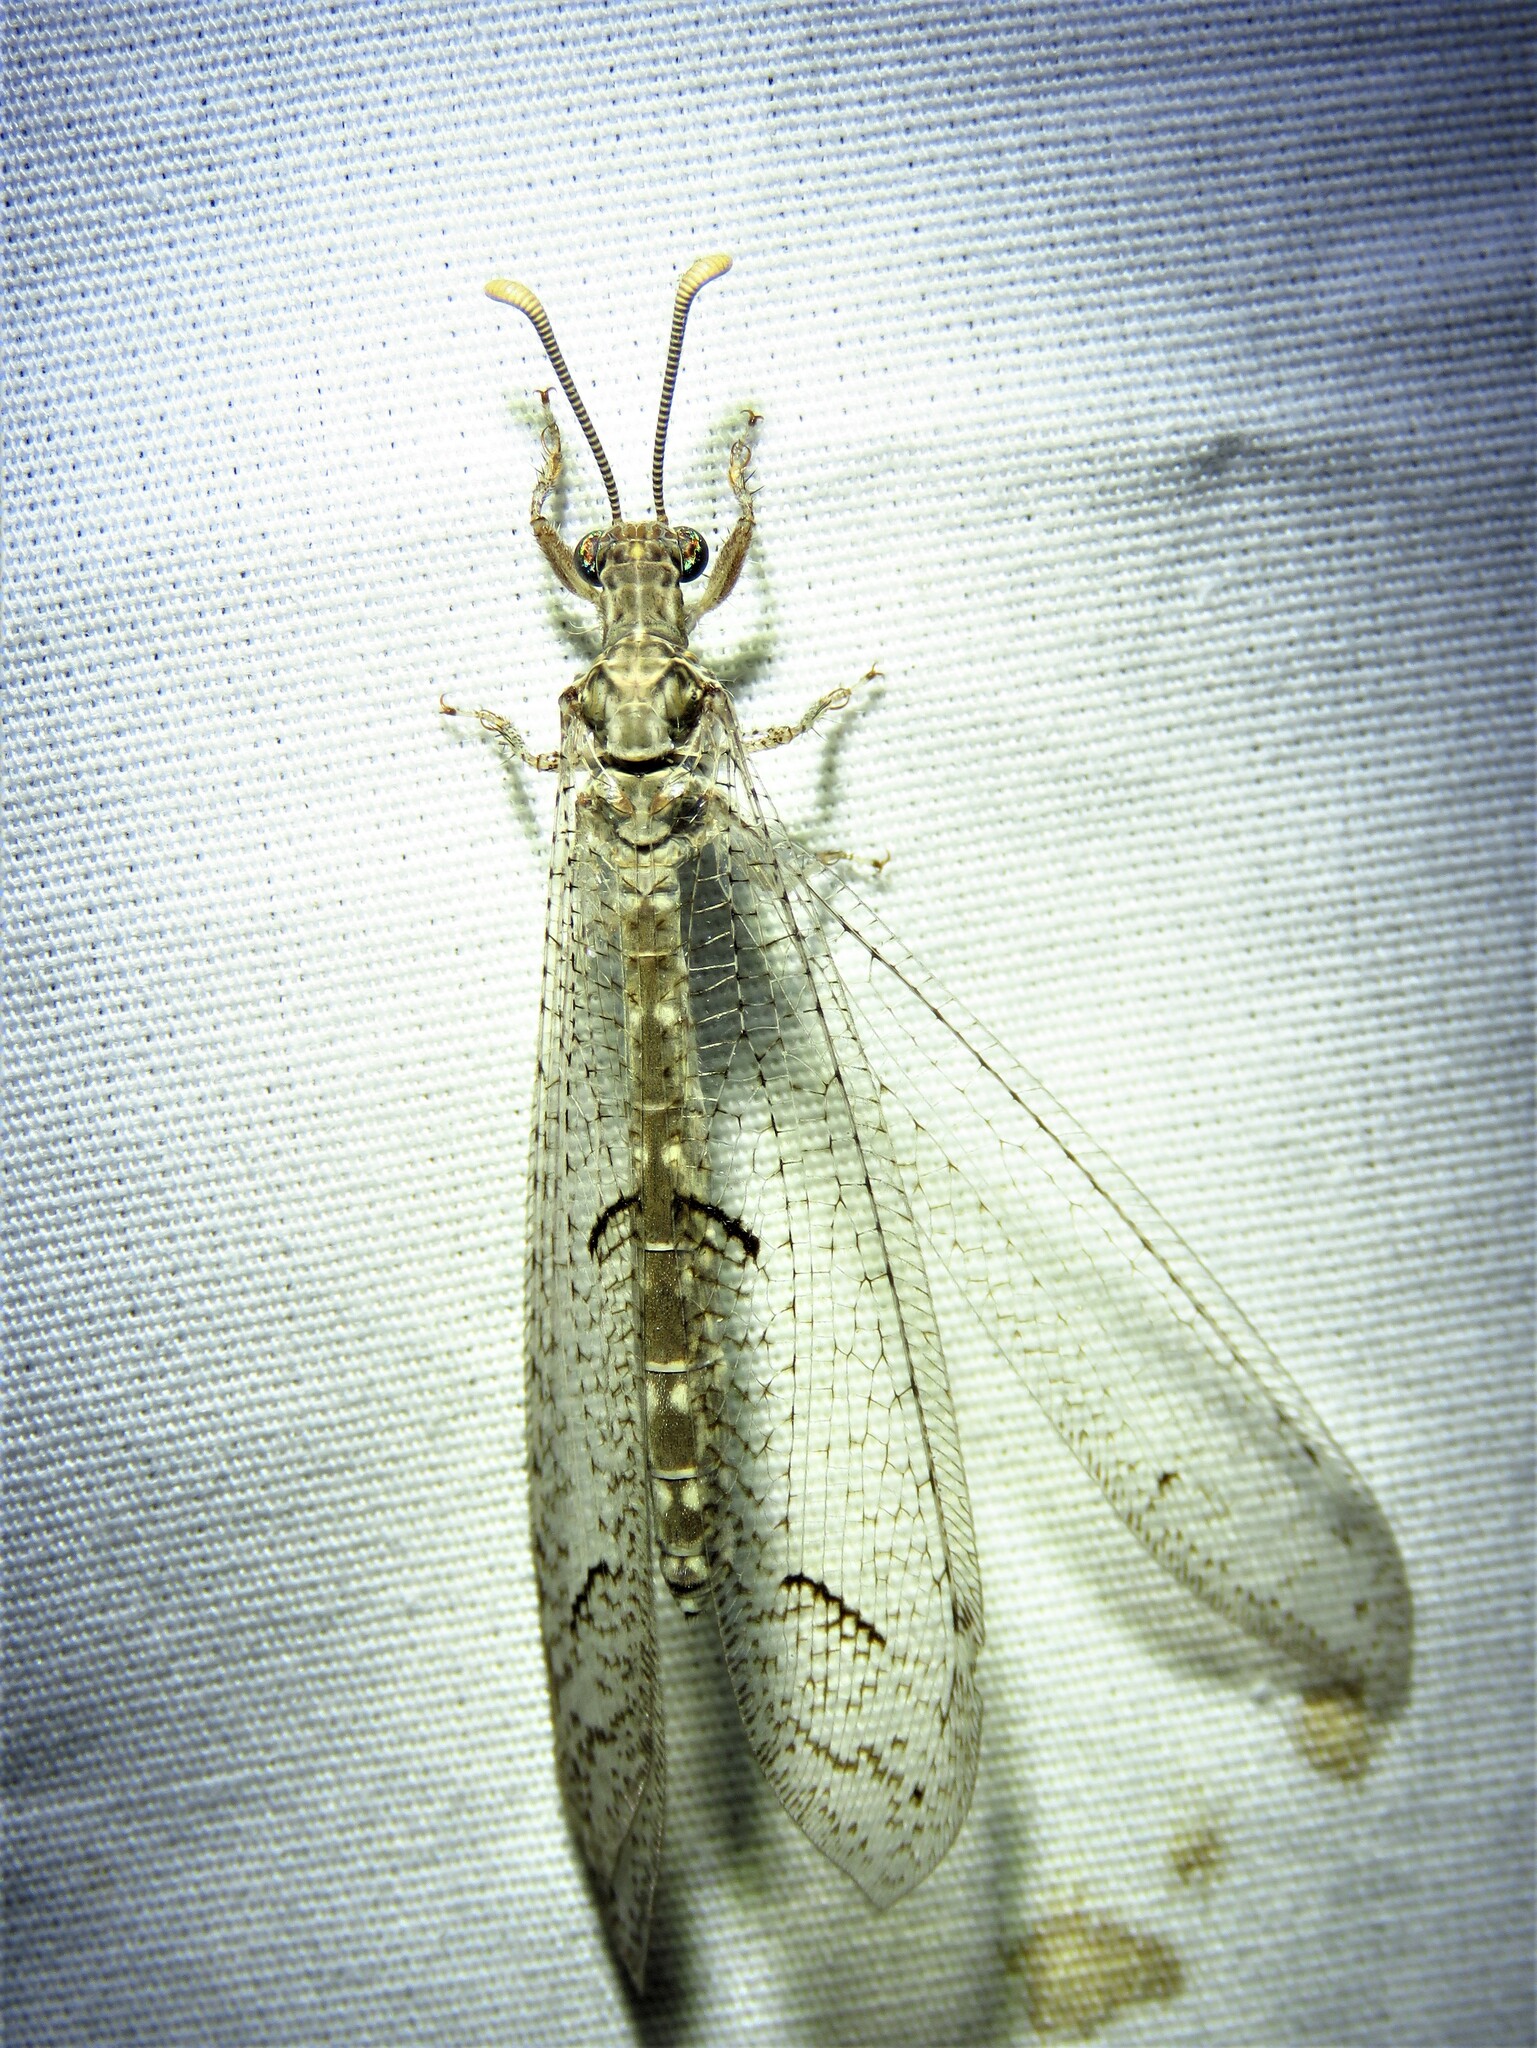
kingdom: Animalia
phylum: Arthropoda
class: Insecta
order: Neuroptera
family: Myrmeleontidae
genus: Euptilon
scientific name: Euptilon ornatum
